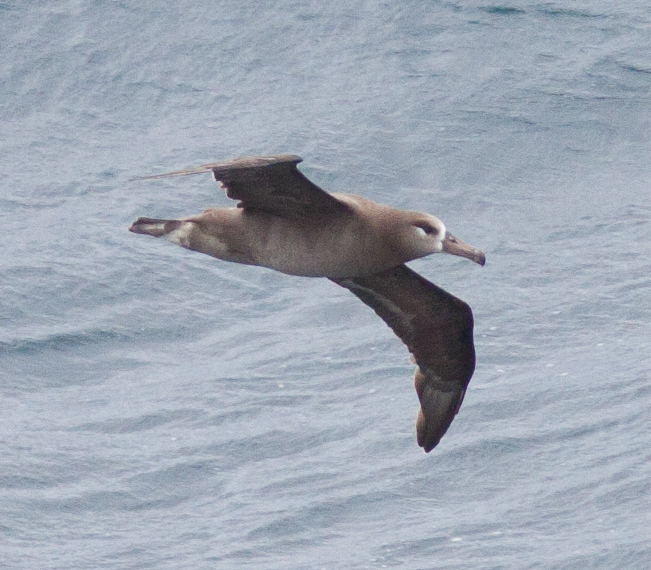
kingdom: Animalia
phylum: Chordata
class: Aves
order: Procellariiformes
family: Diomedeidae
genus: Phoebastria
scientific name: Phoebastria nigripes
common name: Black-footed albatross
